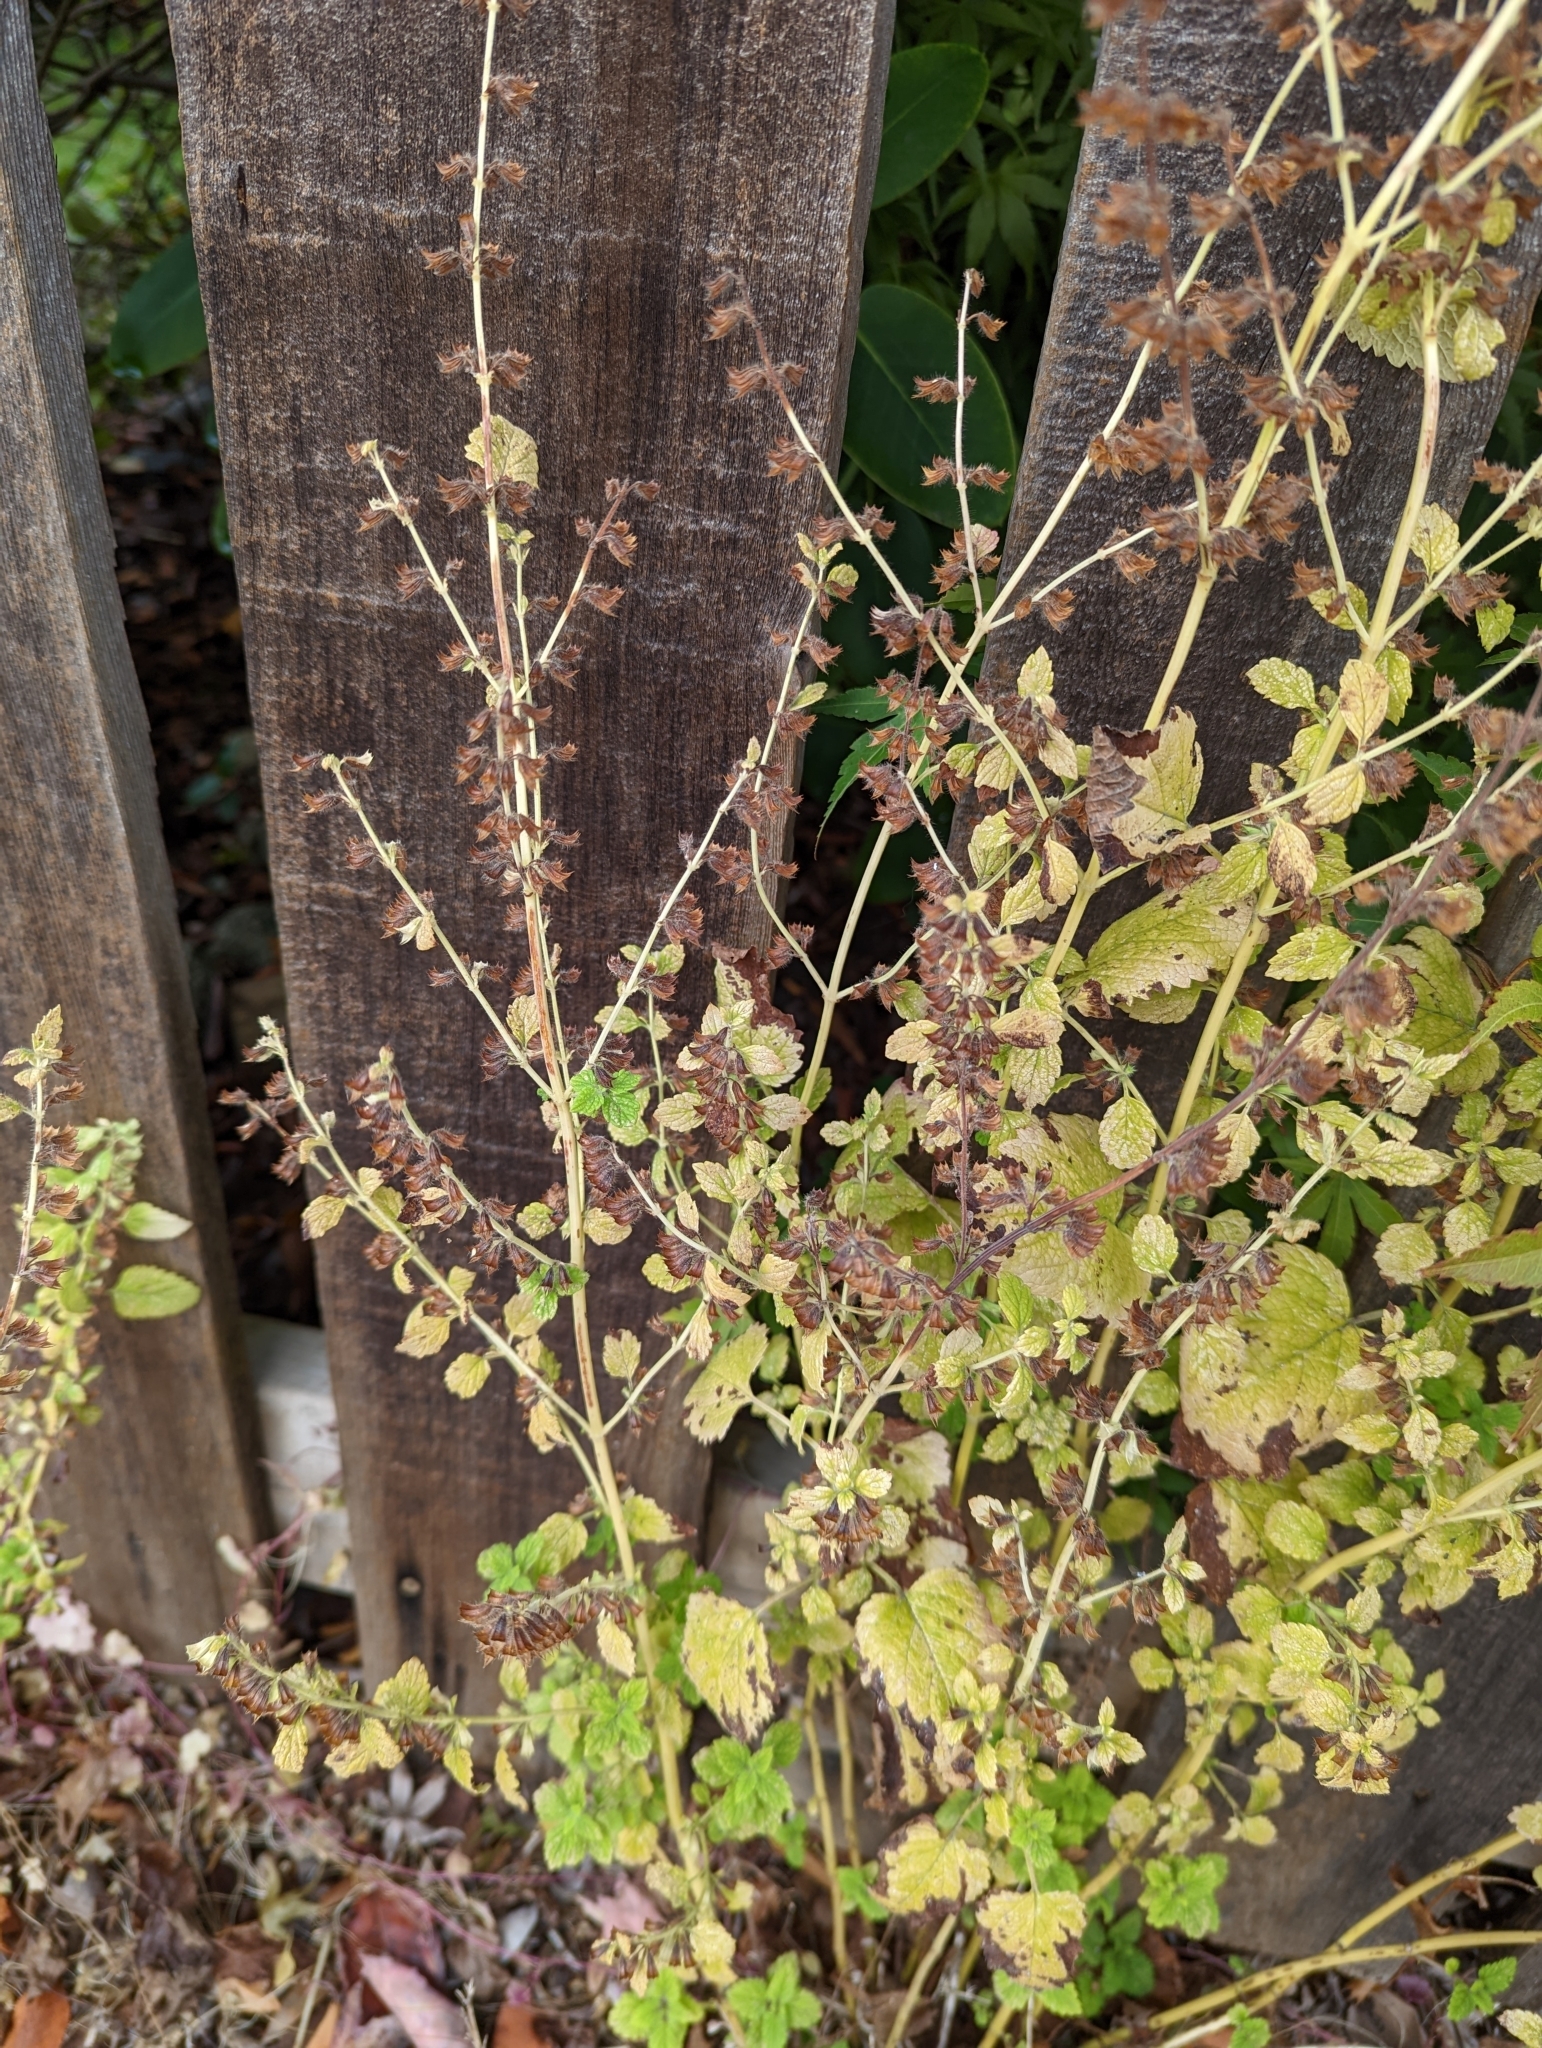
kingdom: Plantae
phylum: Tracheophyta
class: Magnoliopsida
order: Lamiales
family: Lamiaceae
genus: Melissa
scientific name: Melissa officinalis
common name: Balm
